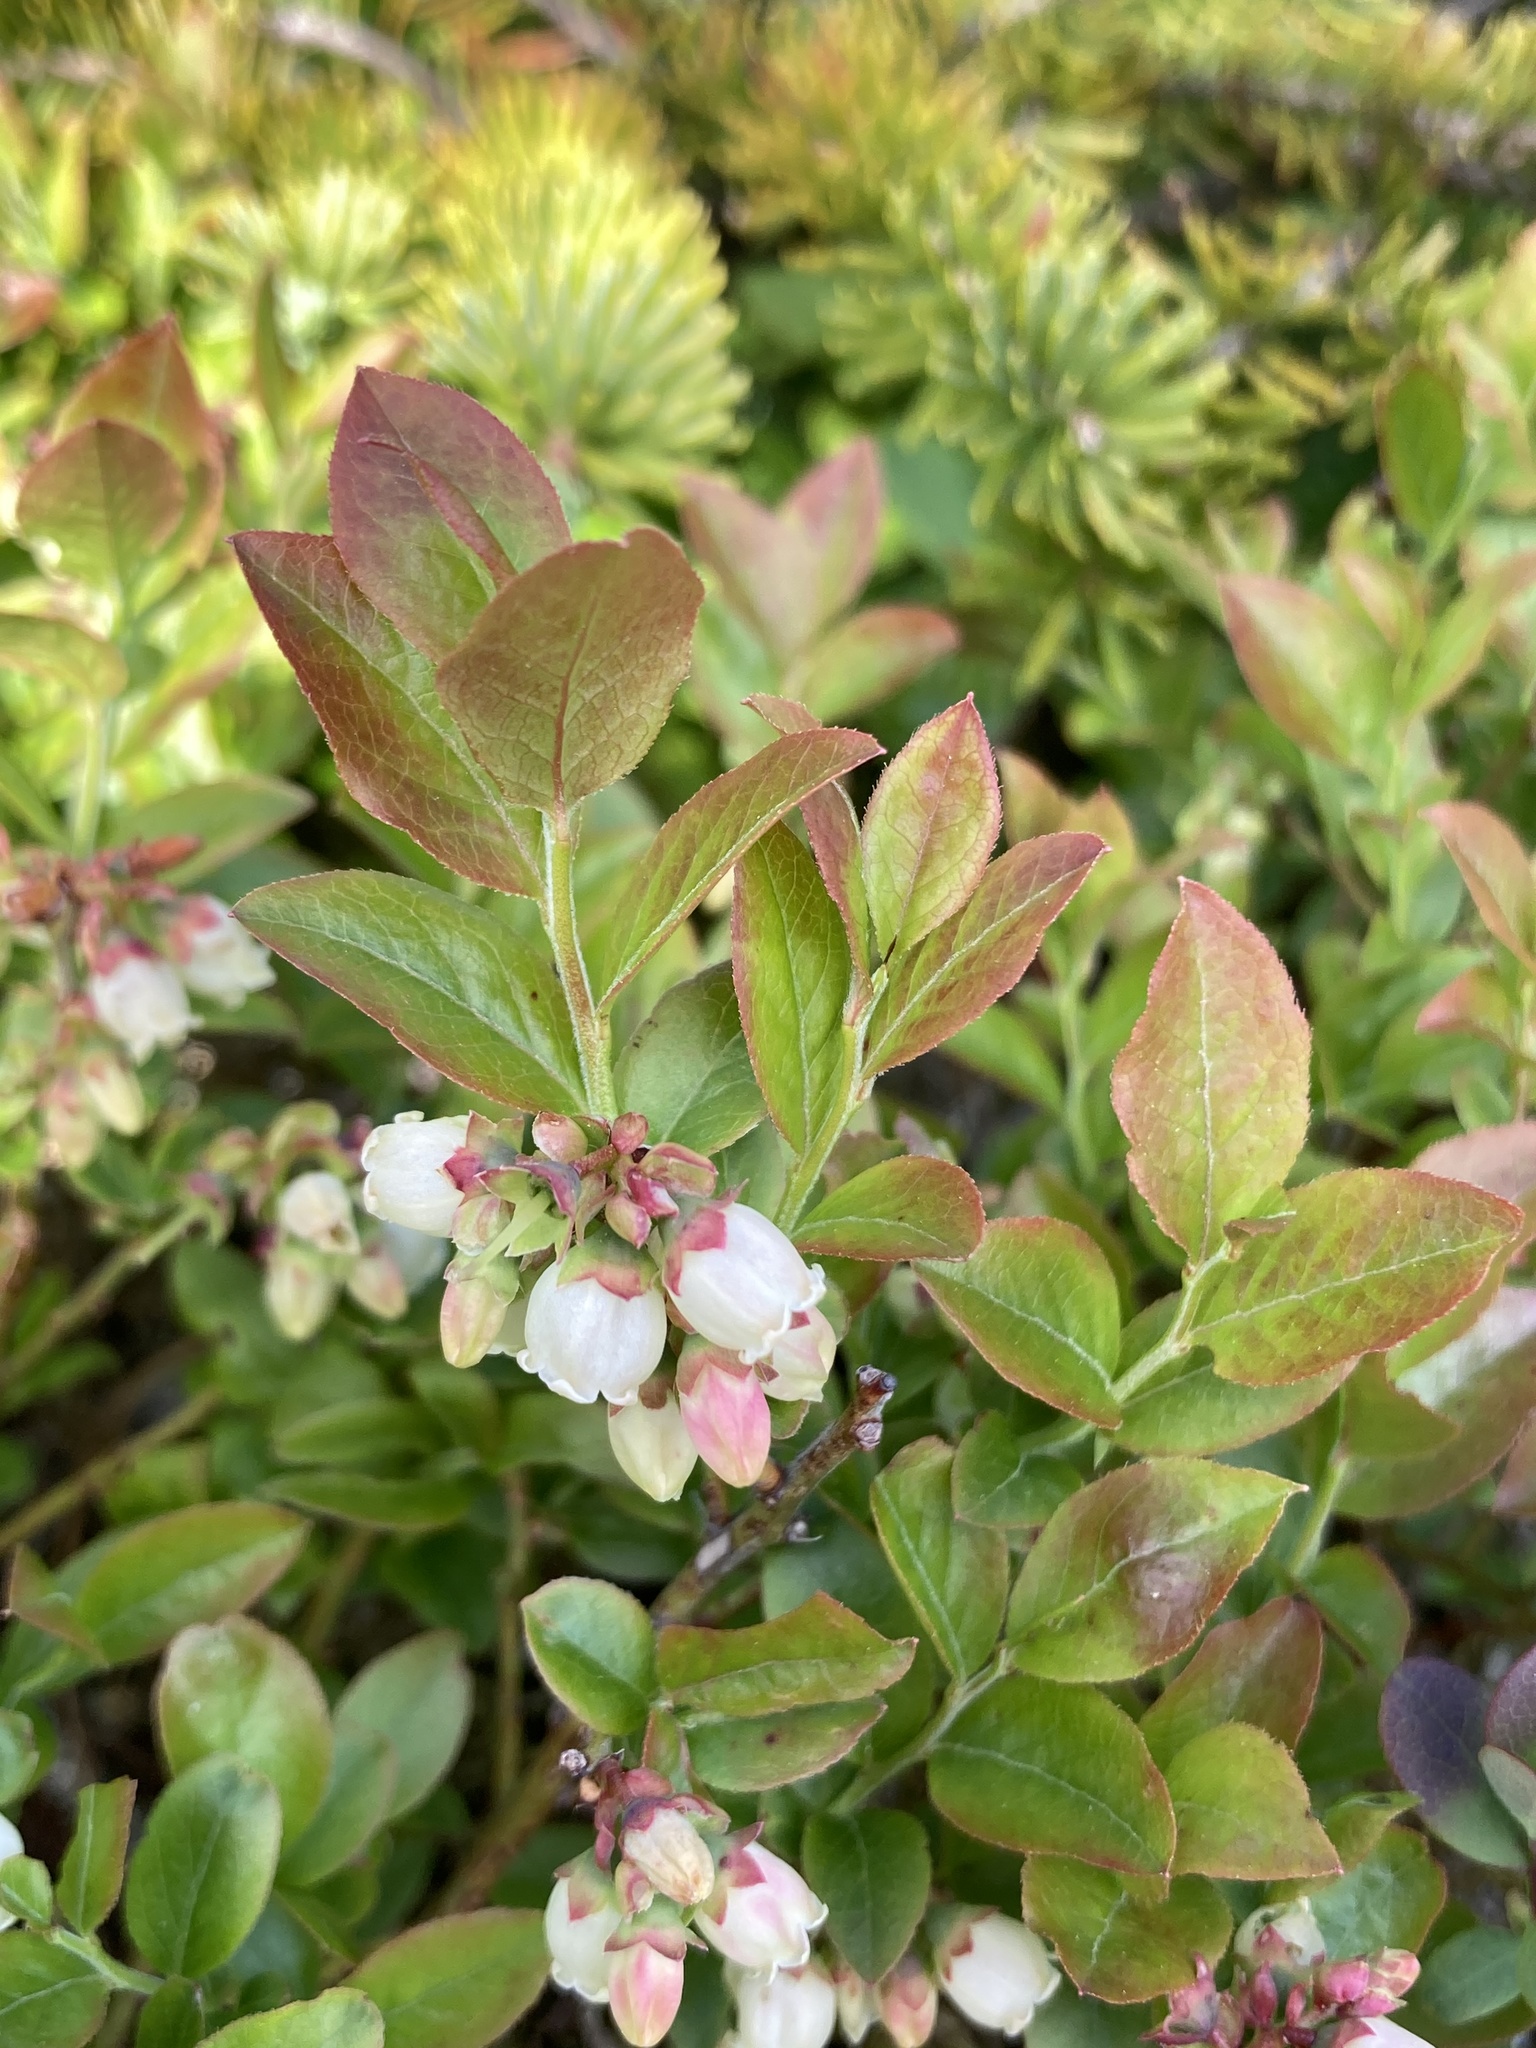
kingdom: Plantae
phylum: Tracheophyta
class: Magnoliopsida
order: Ericales
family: Ericaceae
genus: Vaccinium
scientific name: Vaccinium angustifolium
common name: Early lowbush blueberry
